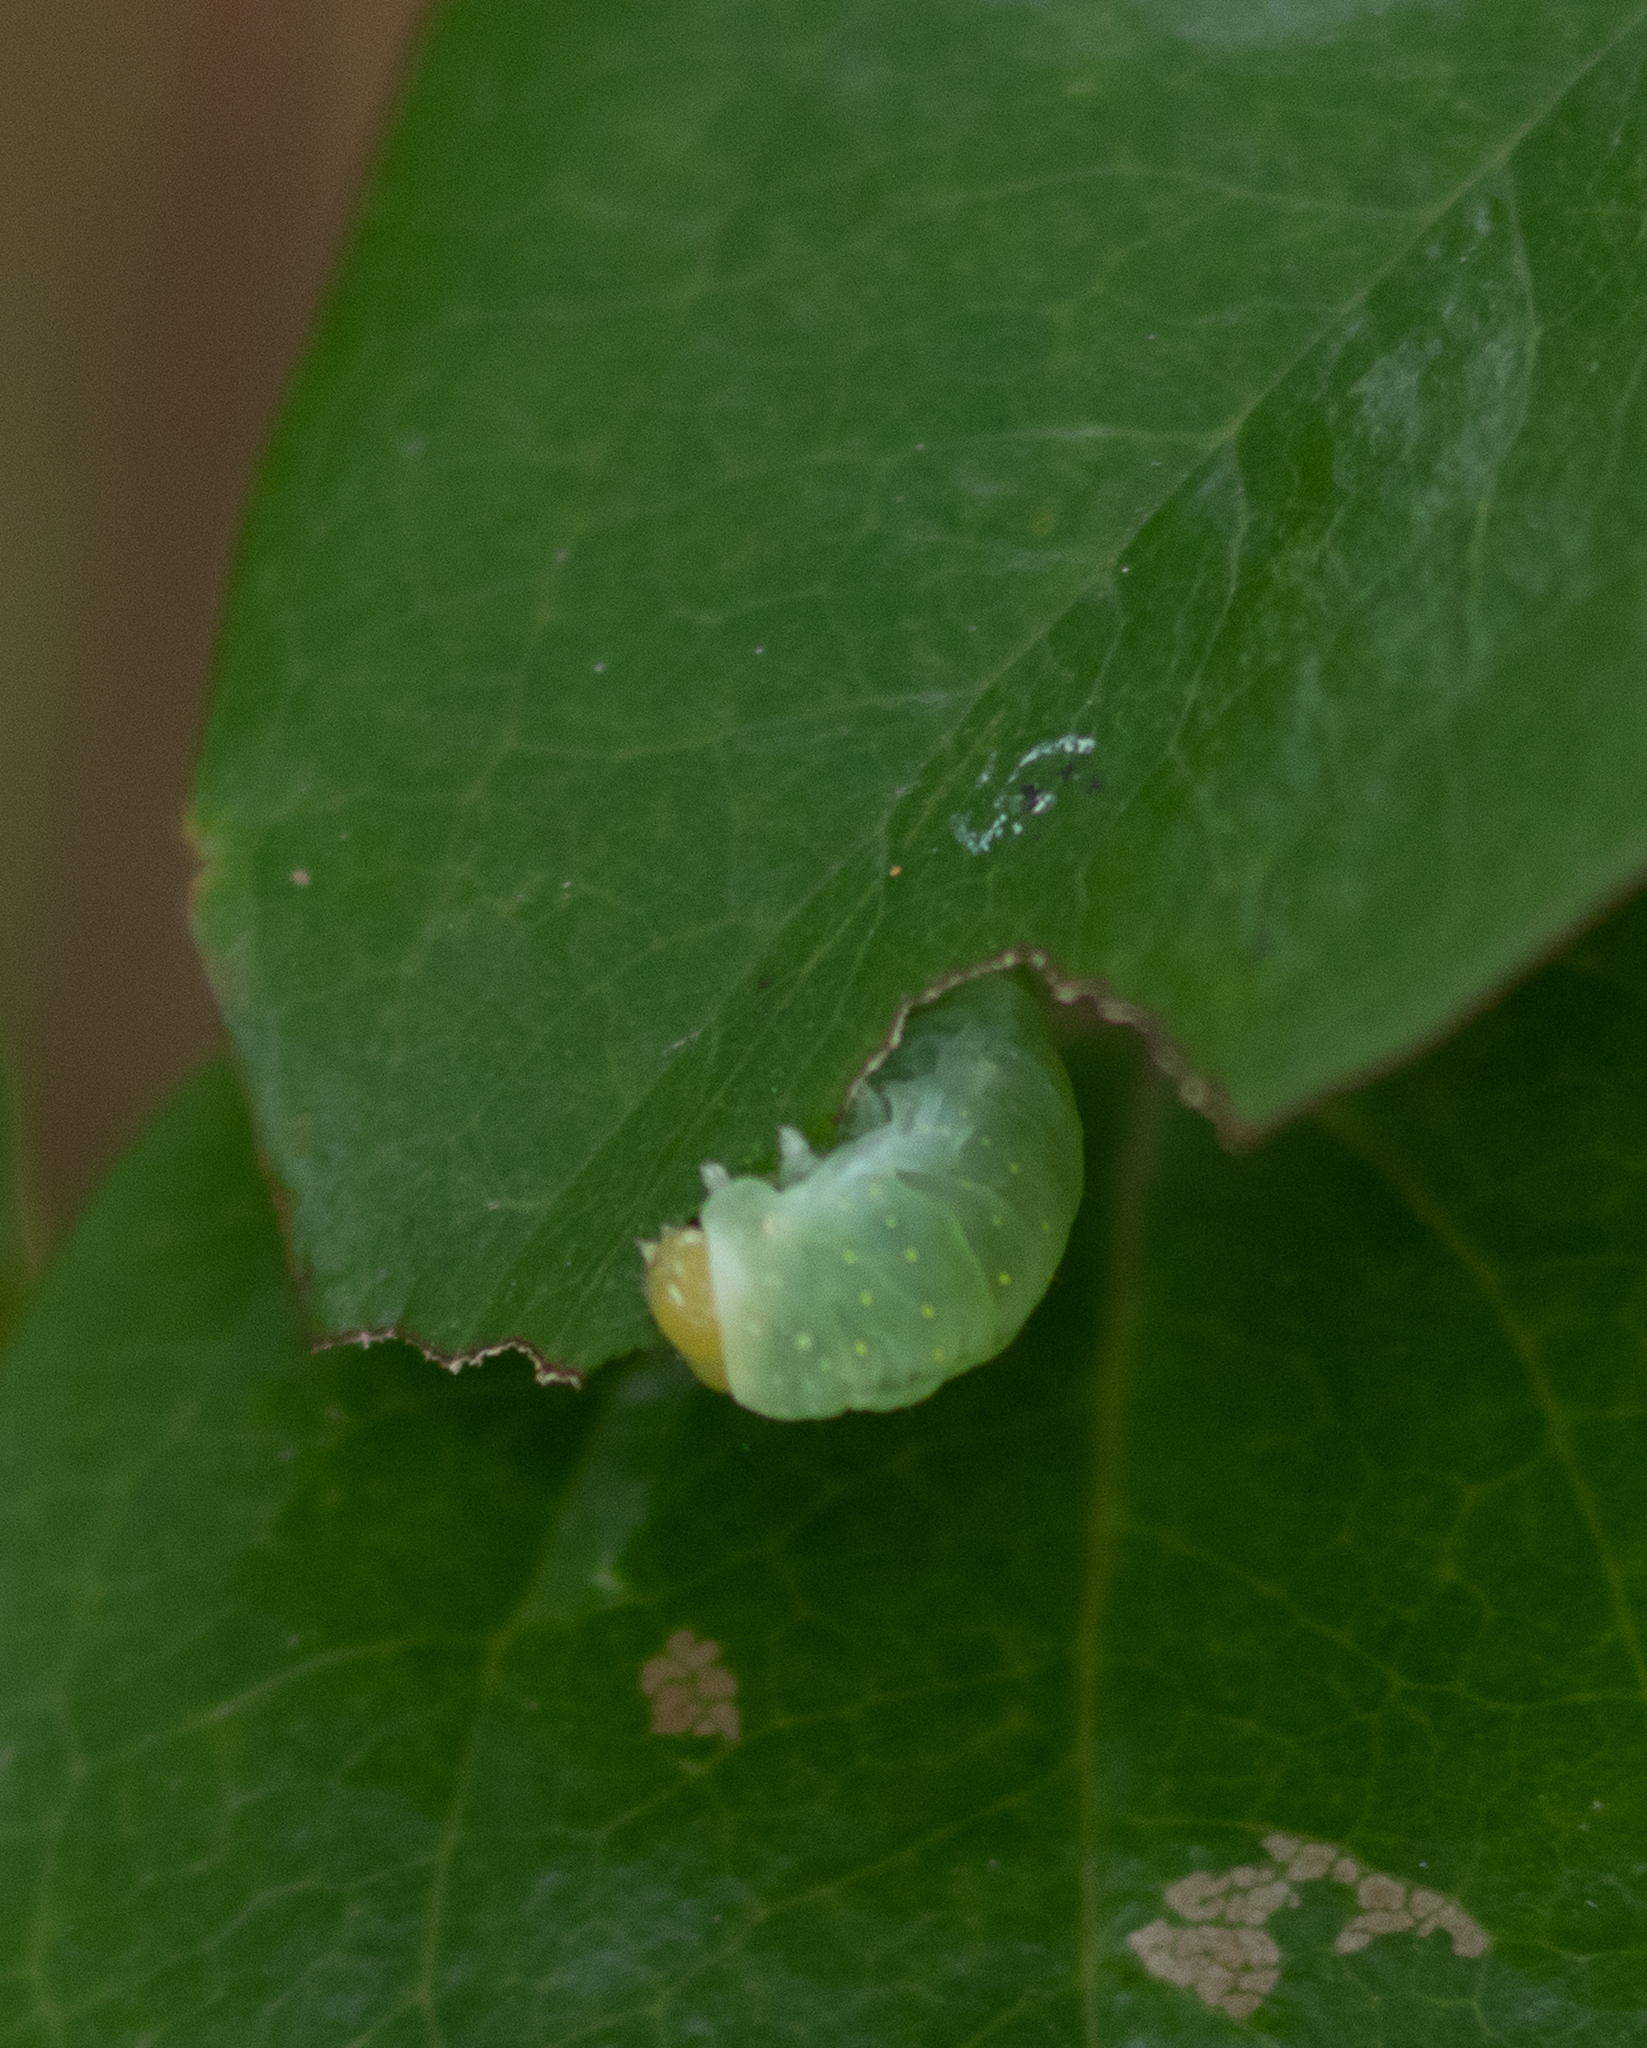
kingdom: Animalia
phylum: Arthropoda
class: Insecta
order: Lepidoptera
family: Noctuidae
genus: Phosphila
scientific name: Phosphila miselioides
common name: Spotted phosphila moth
